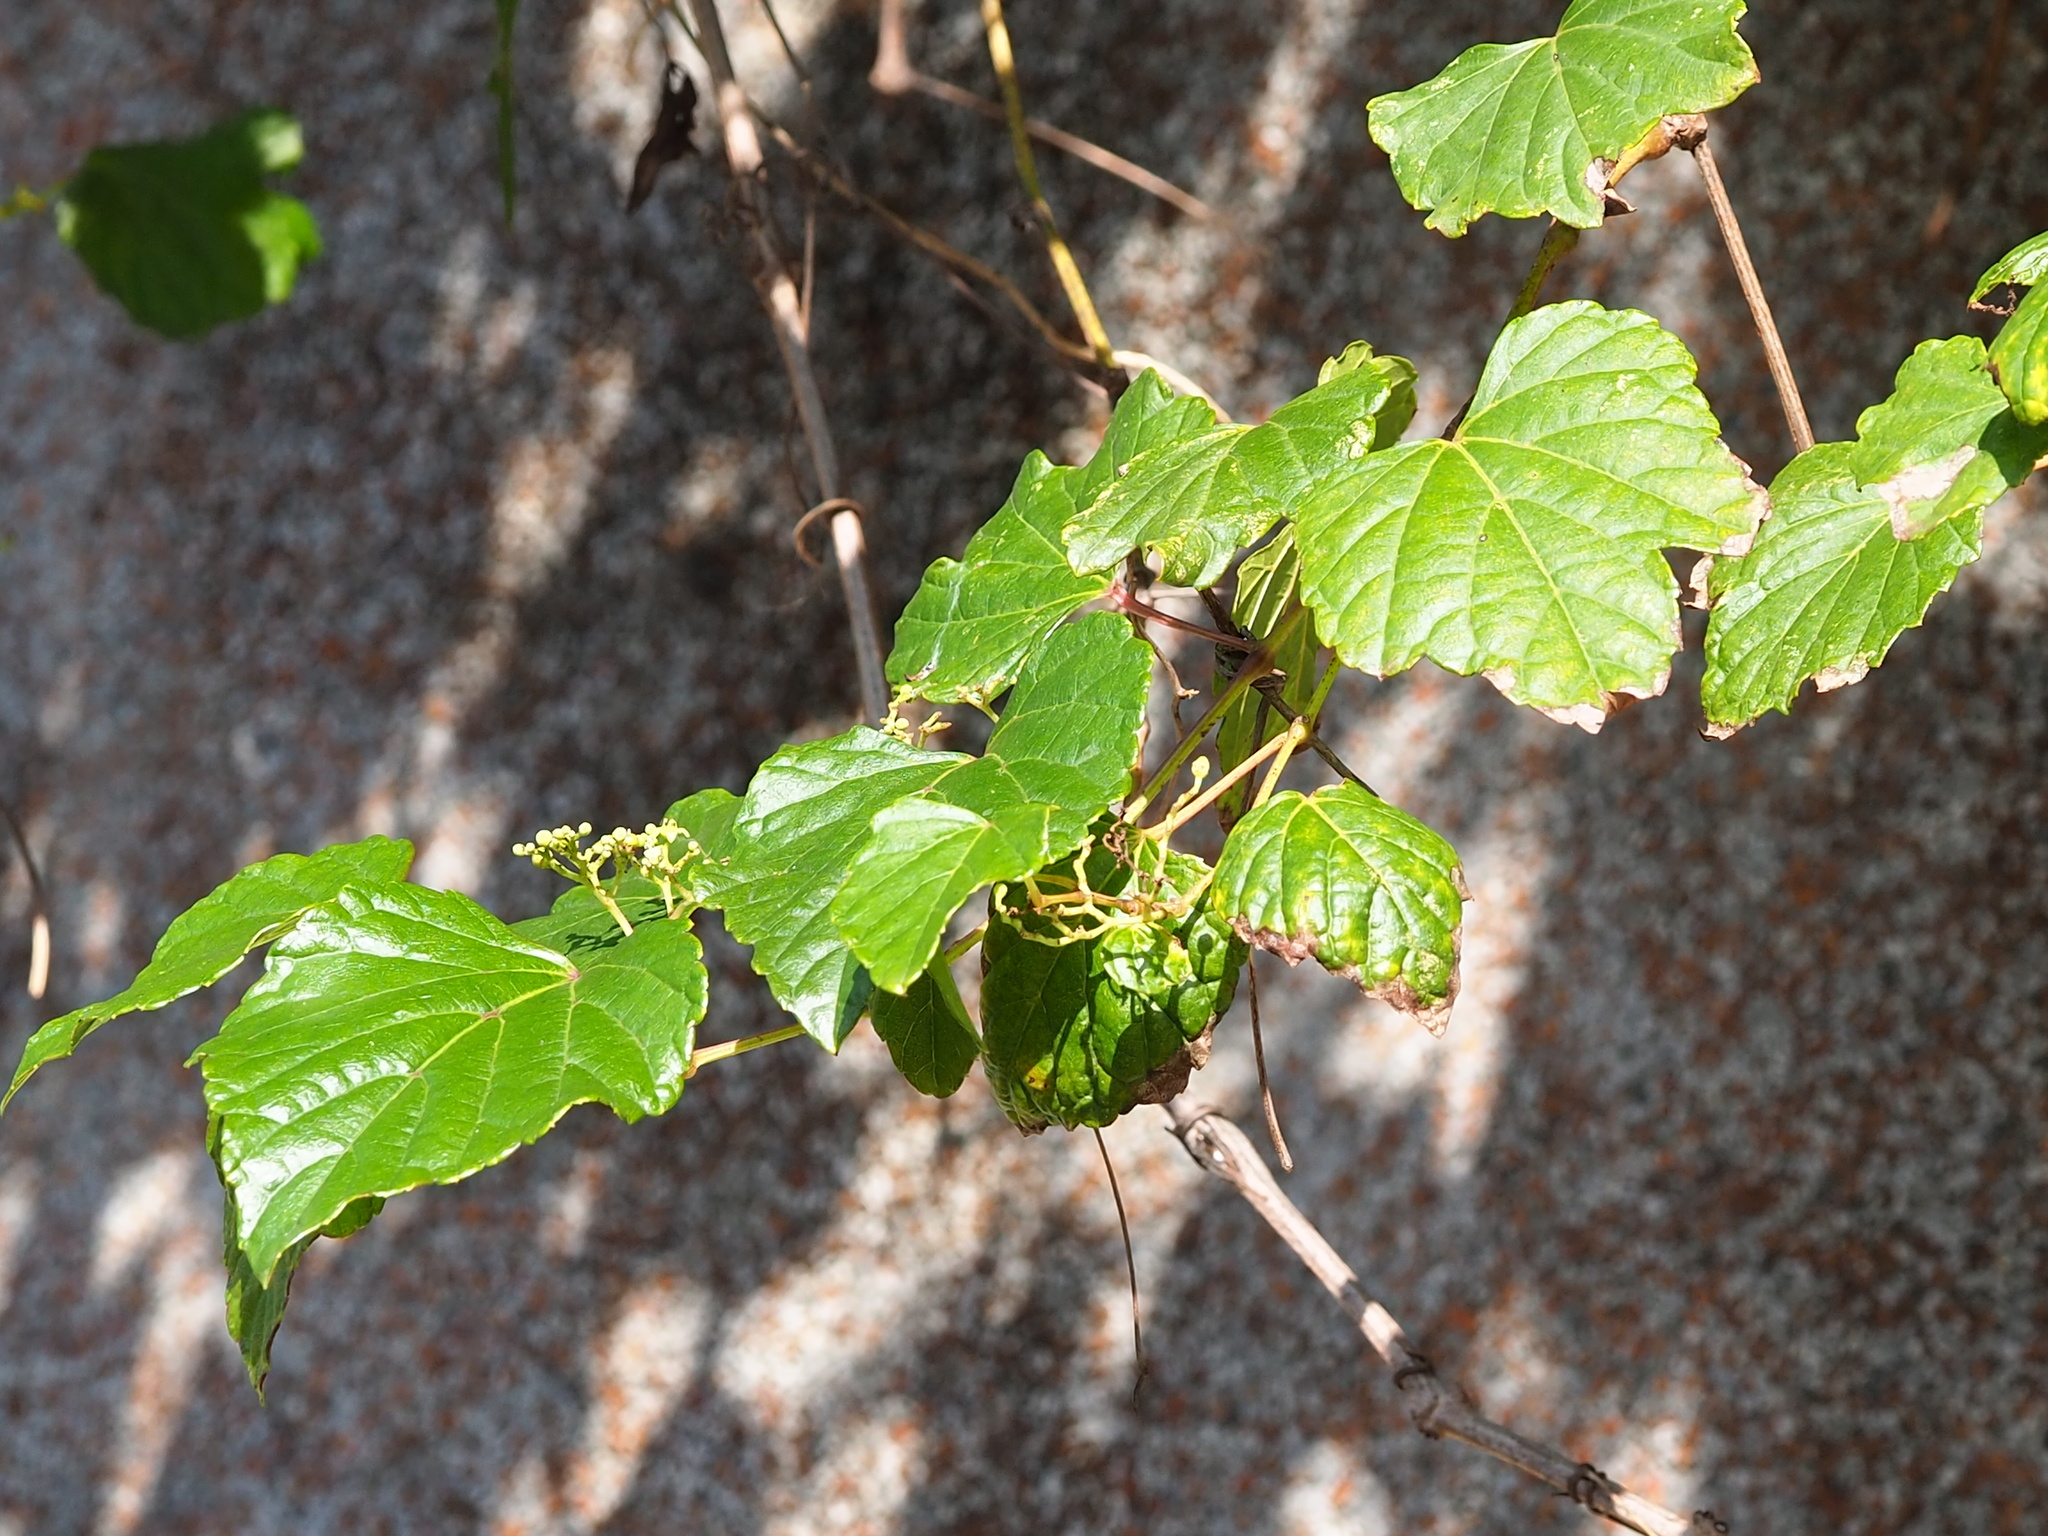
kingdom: Plantae
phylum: Tracheophyta
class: Magnoliopsida
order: Vitales
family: Vitaceae
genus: Ampelopsis
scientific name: Ampelopsis glandulosa
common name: Amur peppervine
